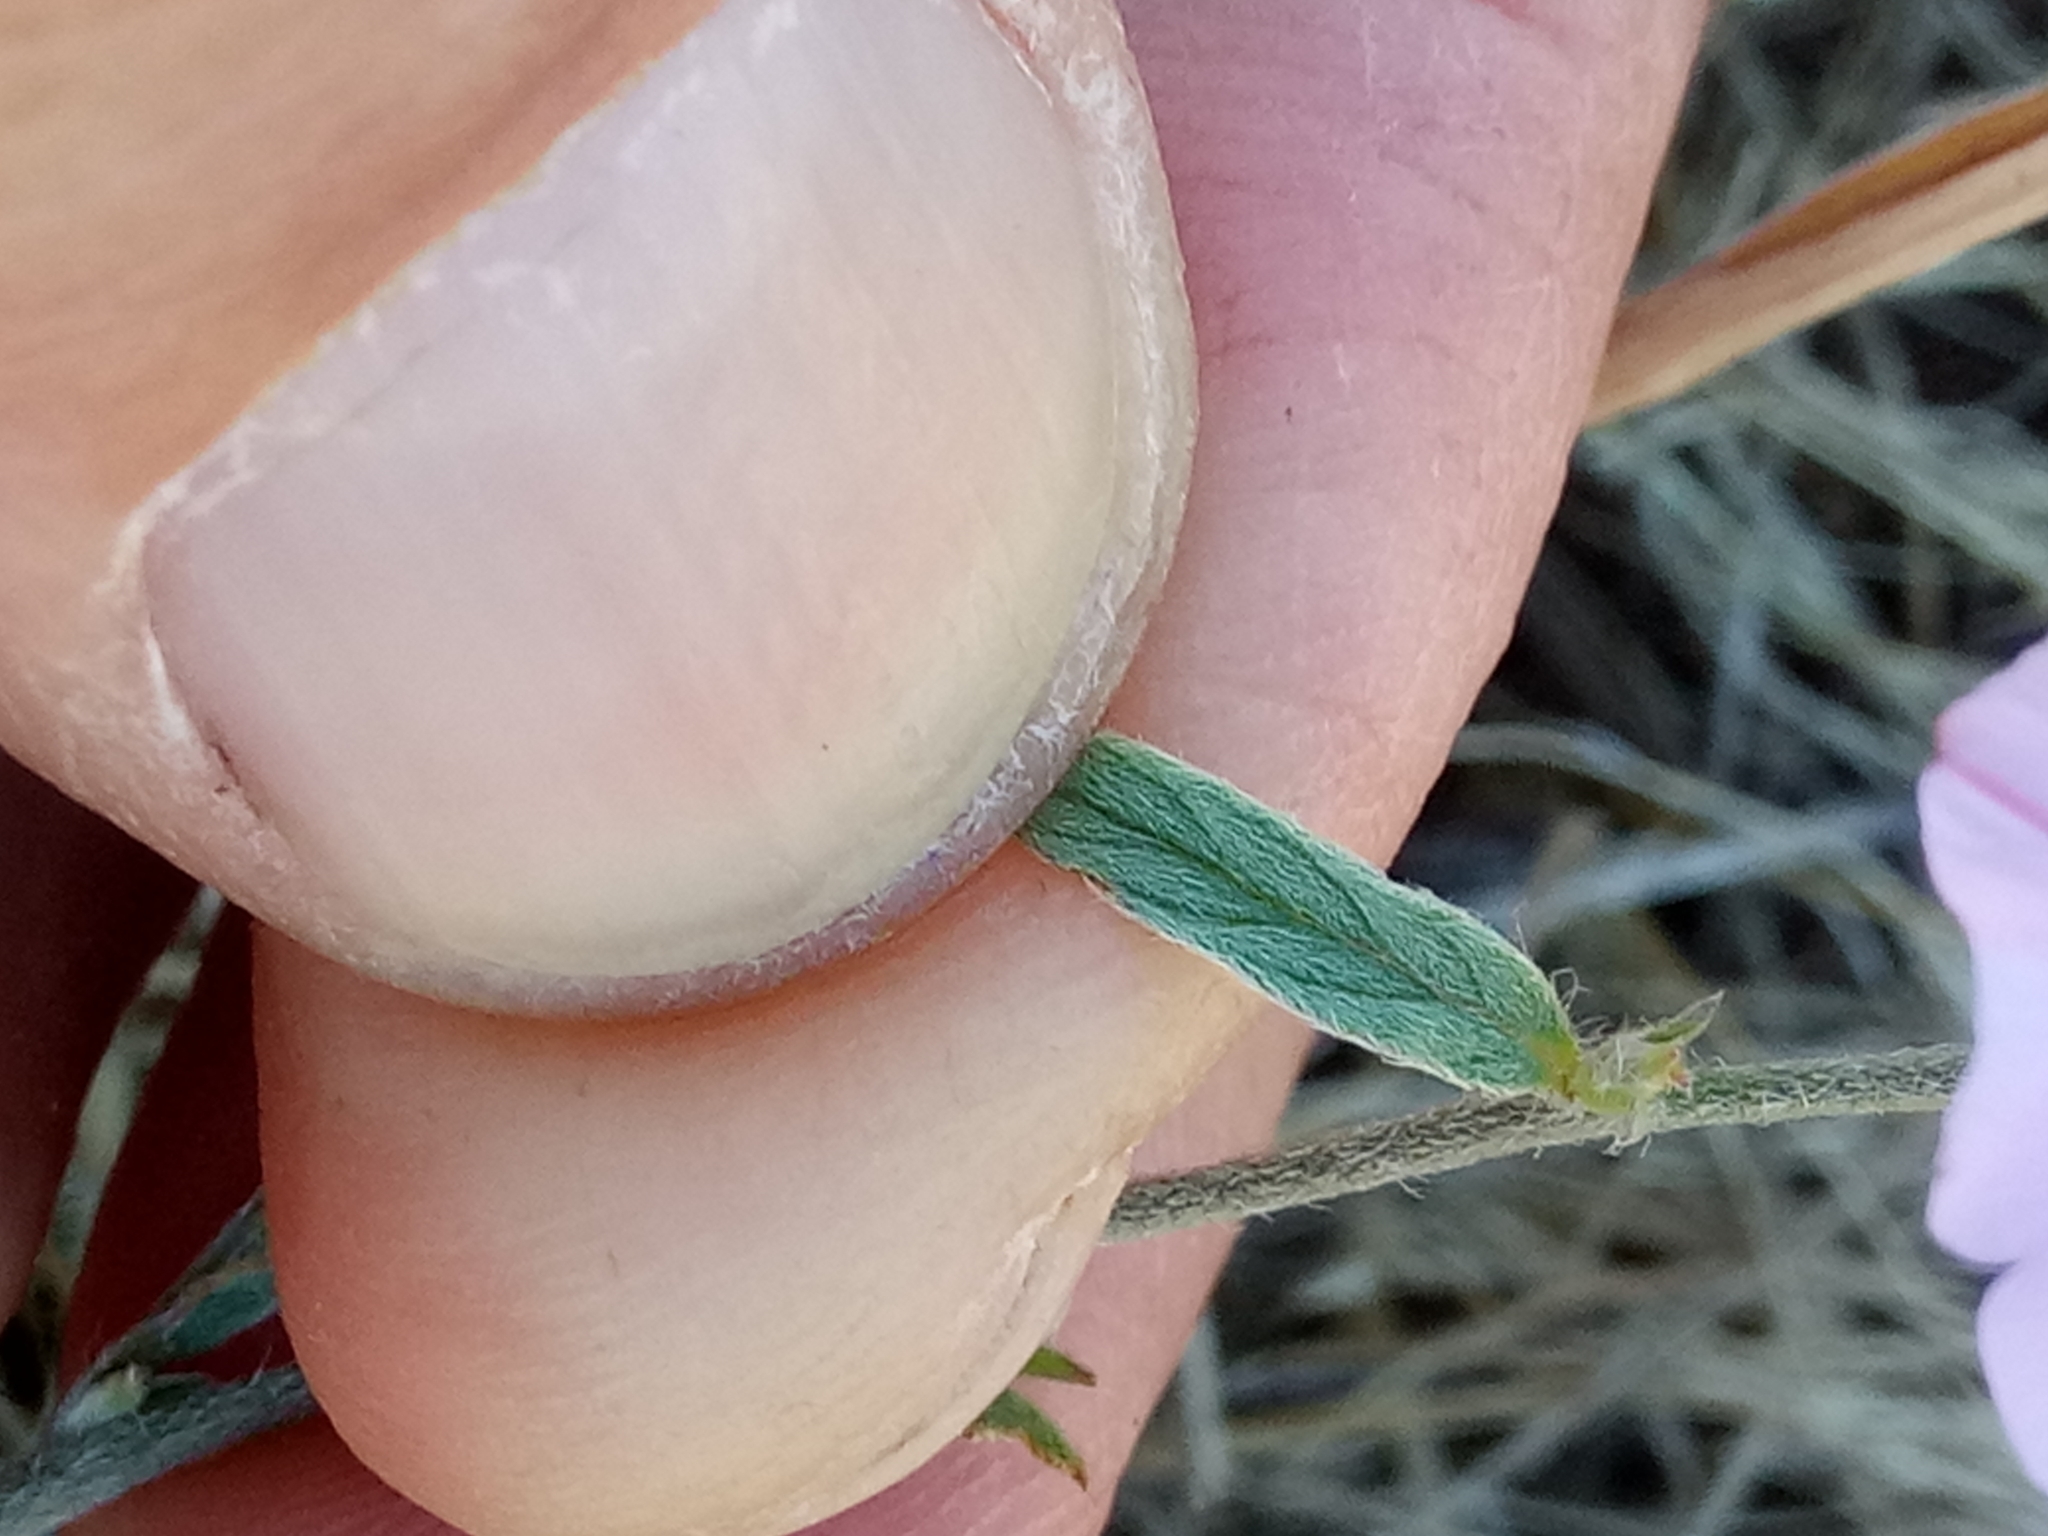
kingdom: Plantae
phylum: Tracheophyta
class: Magnoliopsida
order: Solanales
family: Convolvulaceae
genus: Convolvulus
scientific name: Convolvulus cantabrica
